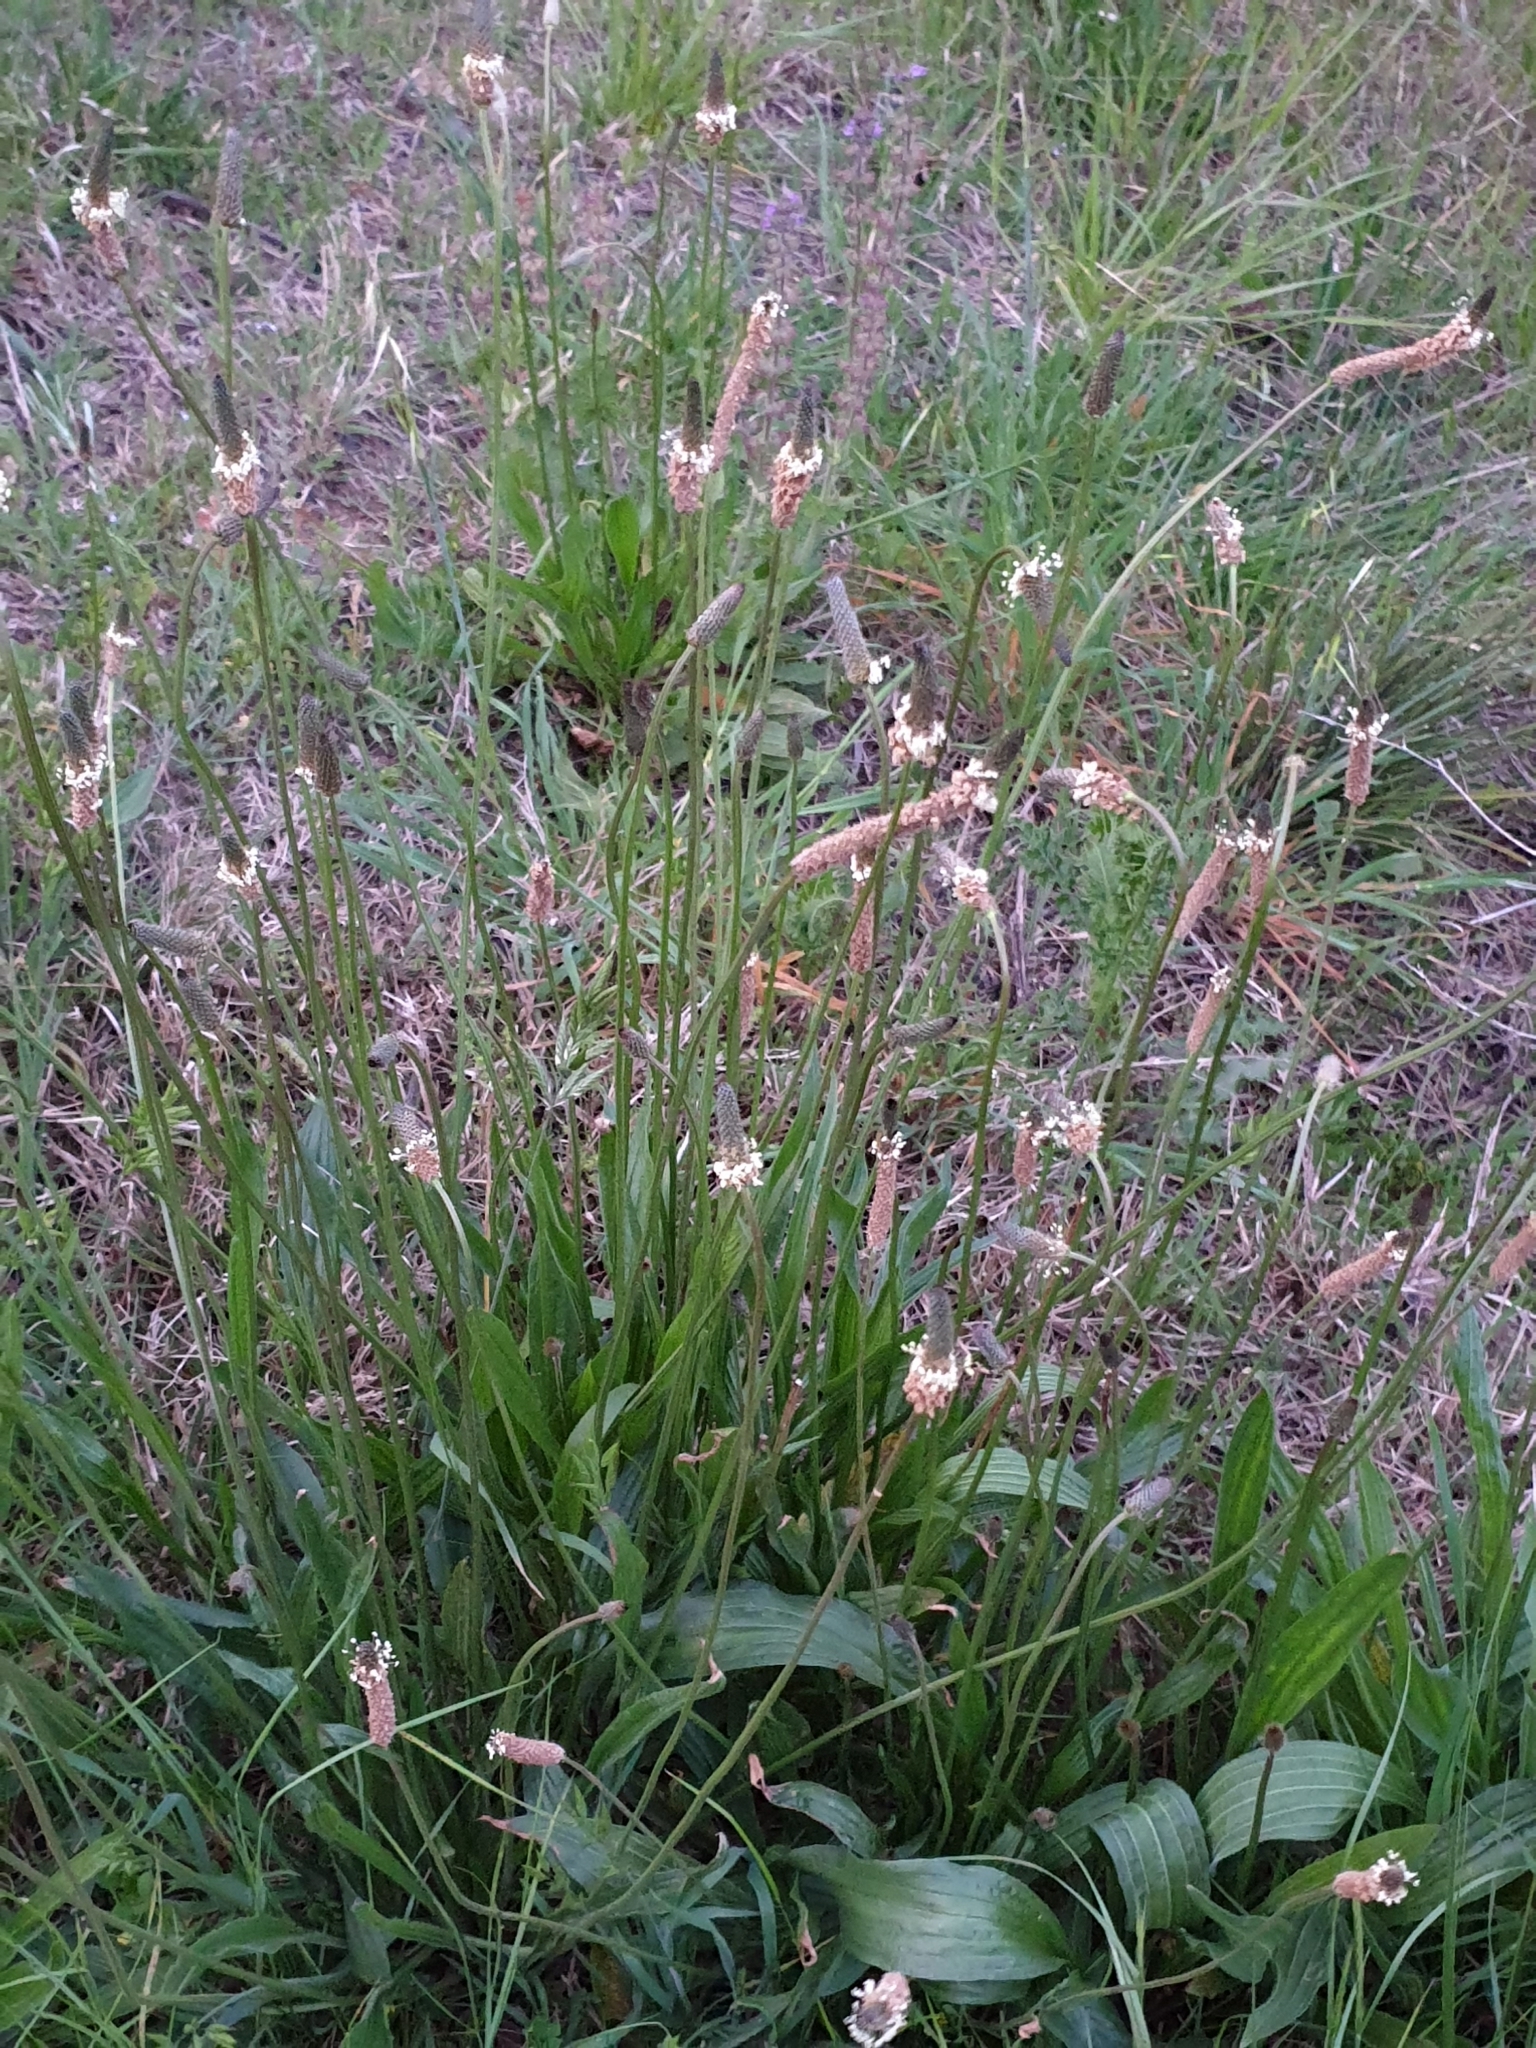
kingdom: Plantae
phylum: Tracheophyta
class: Magnoliopsida
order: Lamiales
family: Plantaginaceae
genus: Plantago
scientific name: Plantago lanceolata
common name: Ribwort plantain
